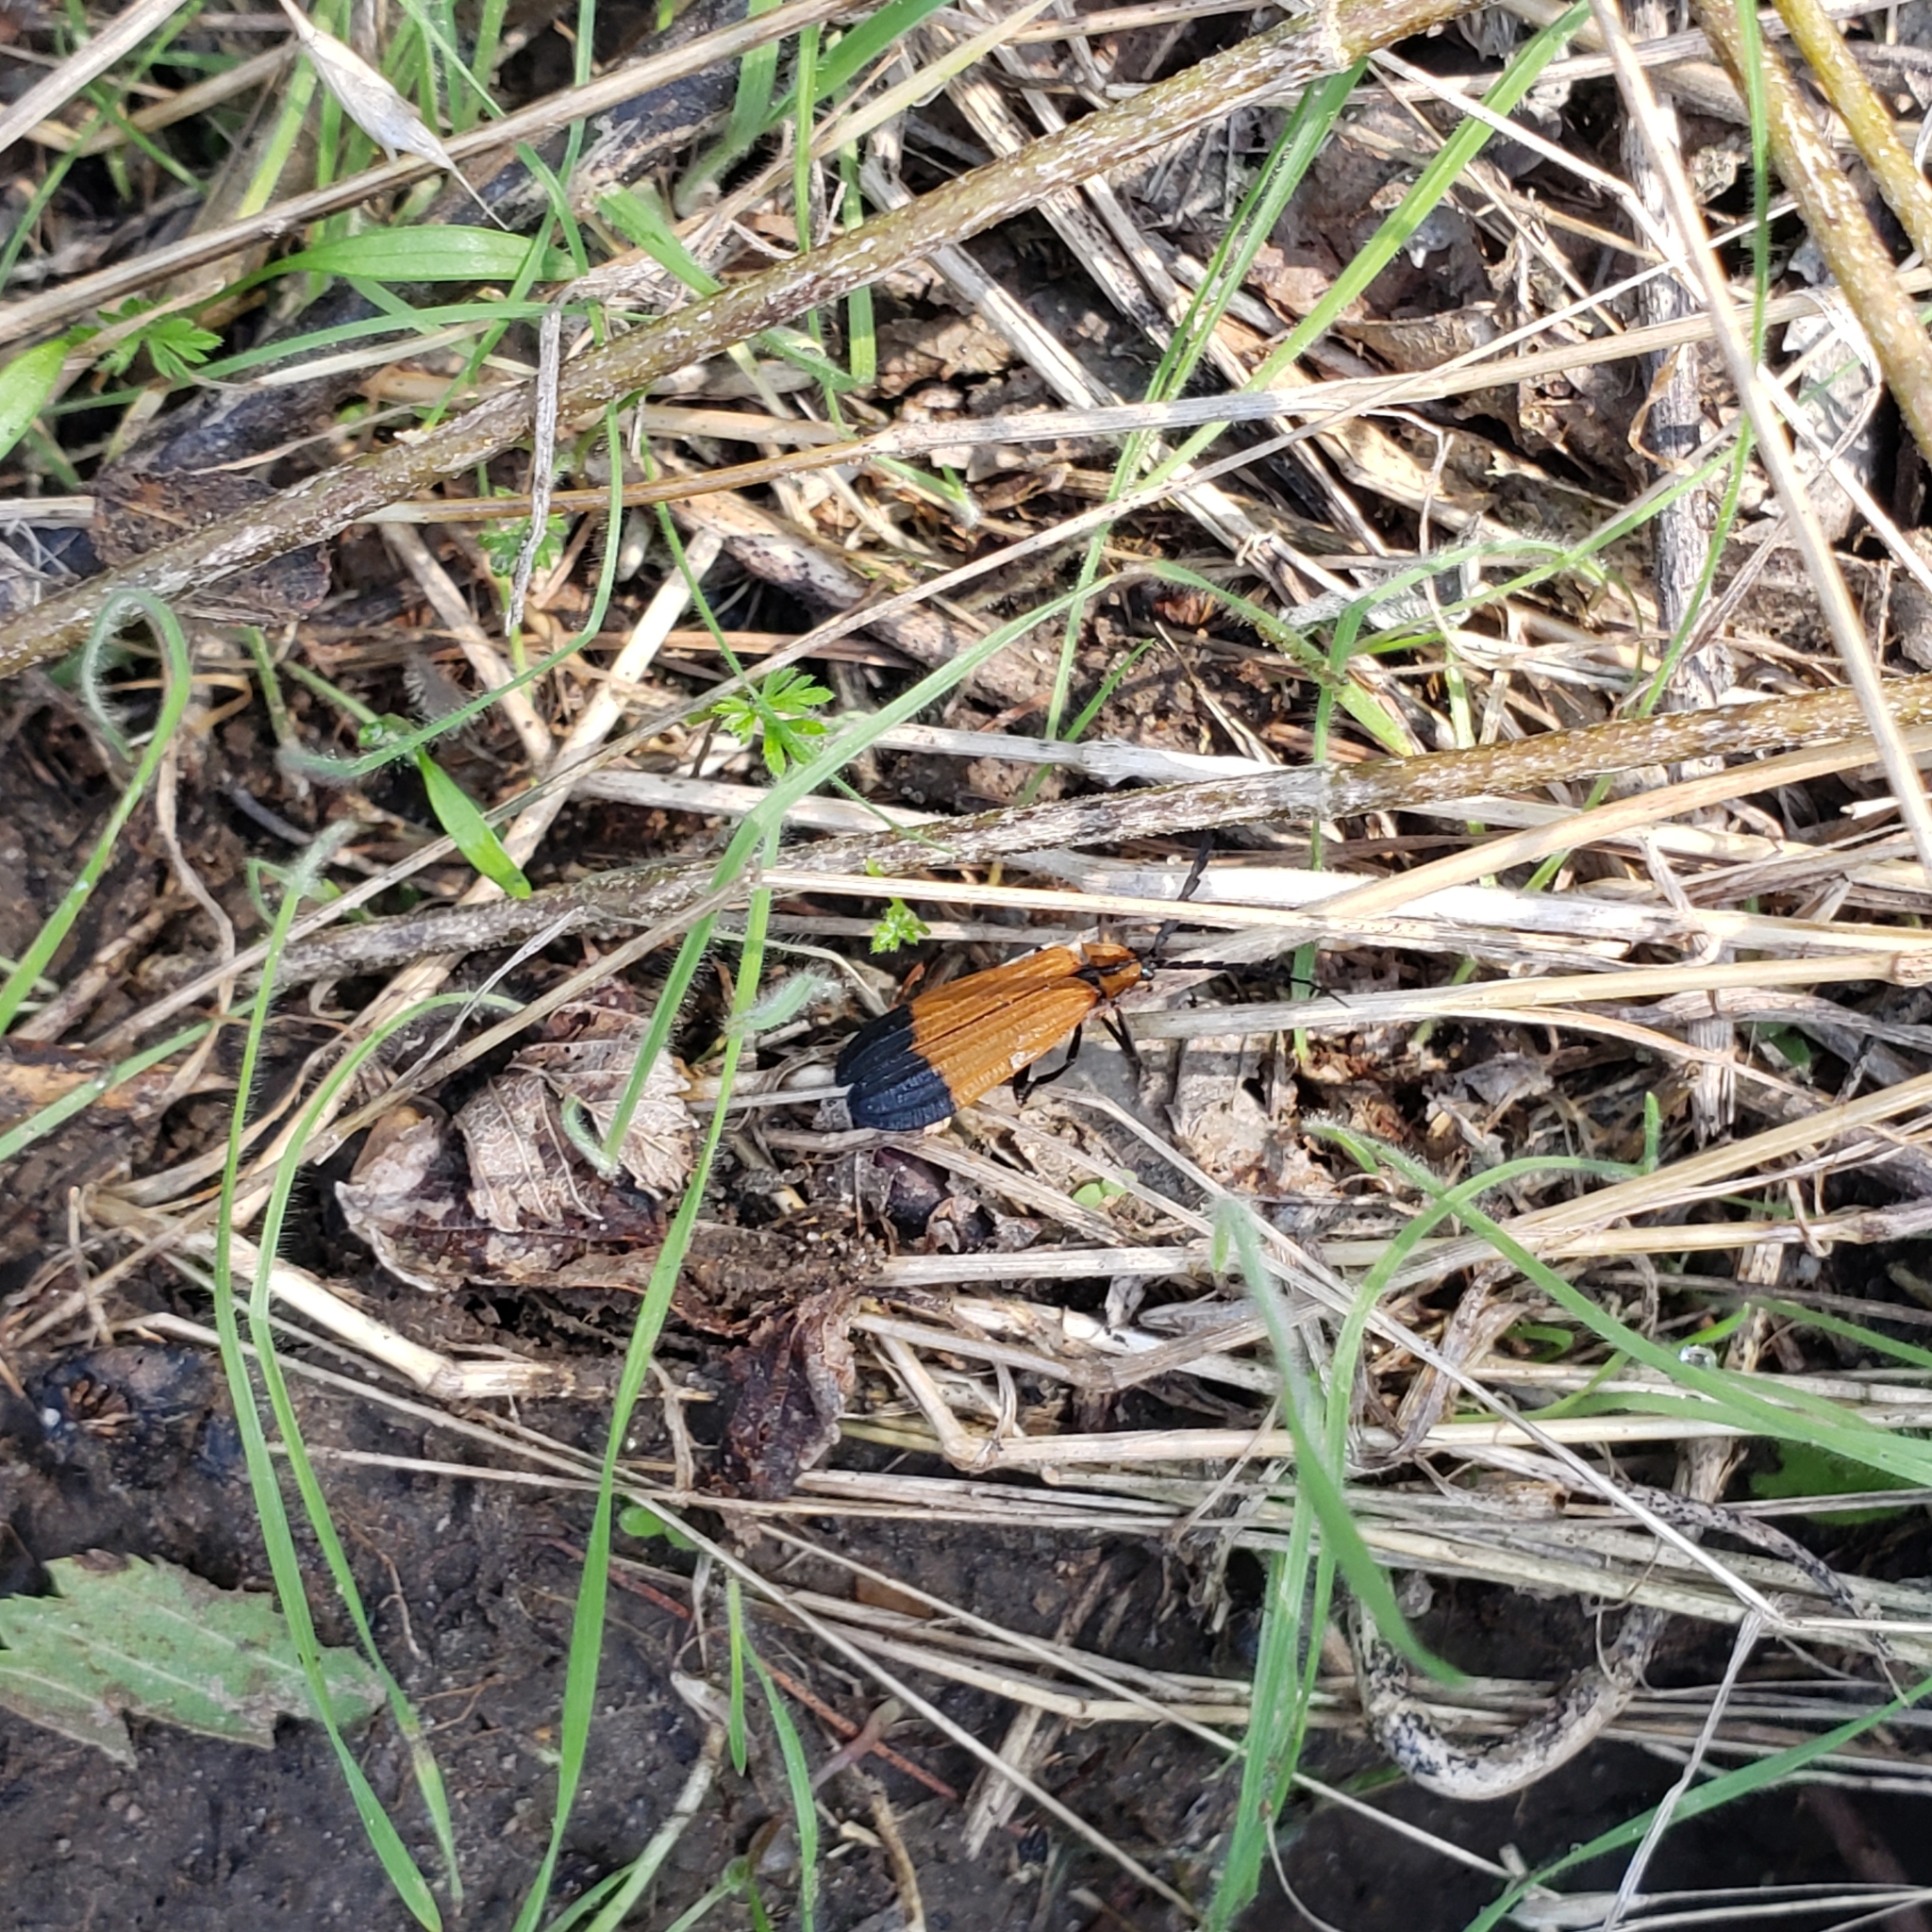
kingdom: Animalia
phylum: Arthropoda
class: Insecta
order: Coleoptera
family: Lycidae
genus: Calopteron
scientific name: Calopteron reticulatum
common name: Banded net-winged beetle
